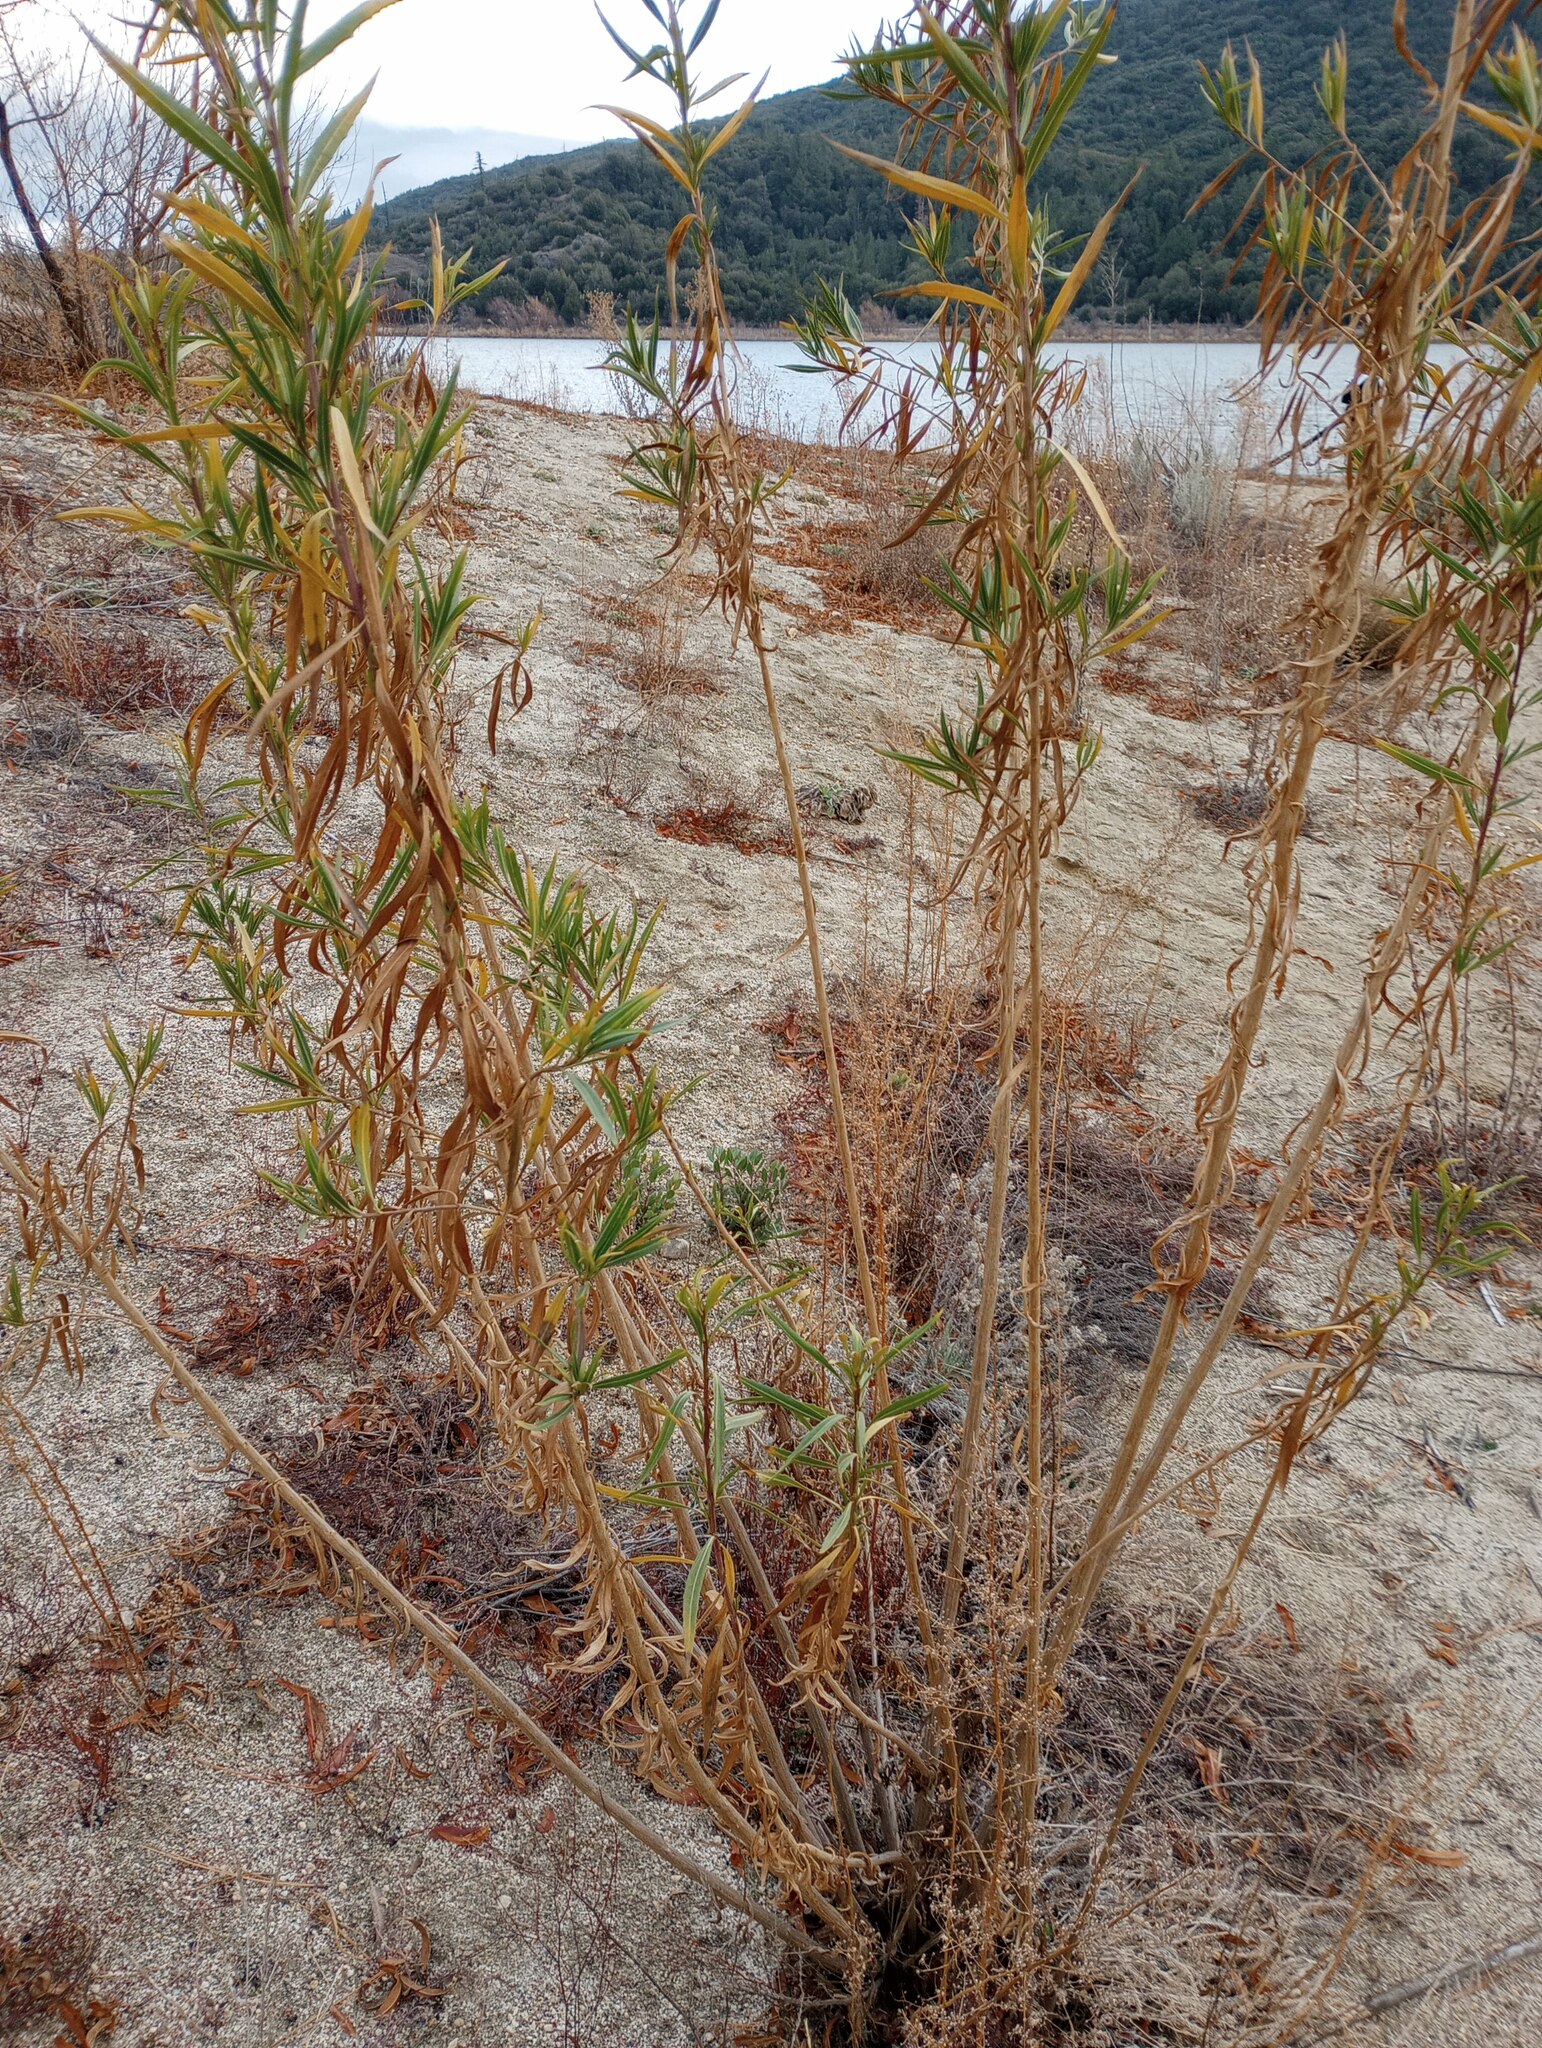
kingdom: Plantae
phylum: Tracheophyta
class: Magnoliopsida
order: Asterales
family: Asteraceae
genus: Baccharis
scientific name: Baccharis salicifolia
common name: Sticky baccharis
